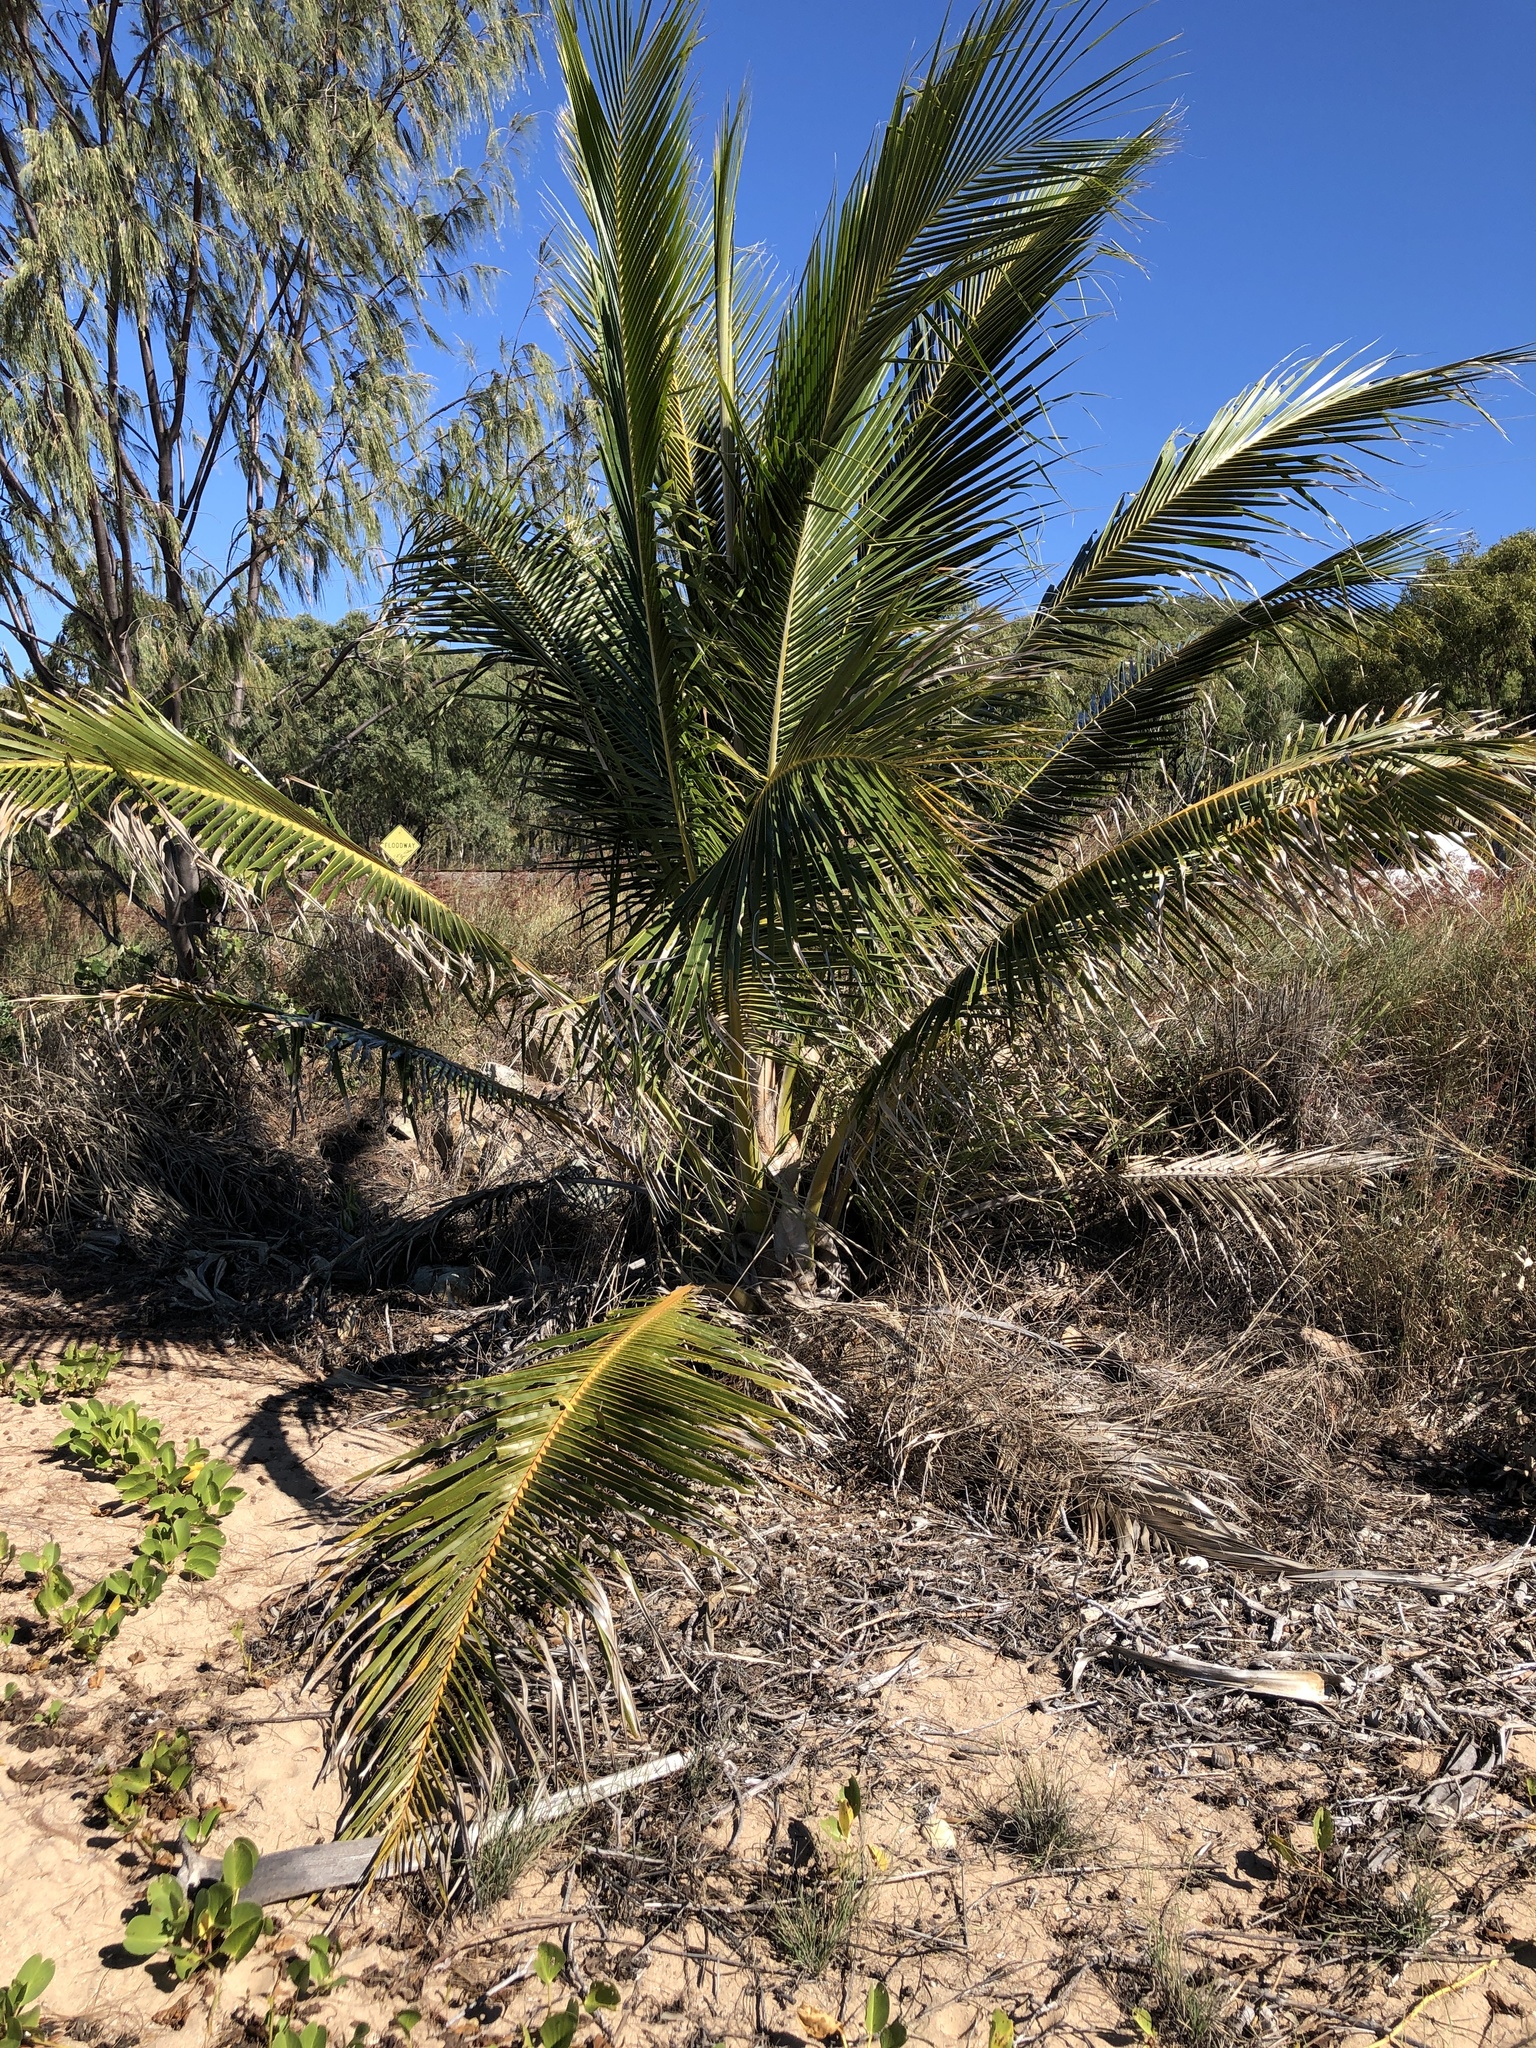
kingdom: Plantae
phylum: Tracheophyta
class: Liliopsida
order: Arecales
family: Arecaceae
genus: Cocos
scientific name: Cocos nucifera
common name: Coconut palm
